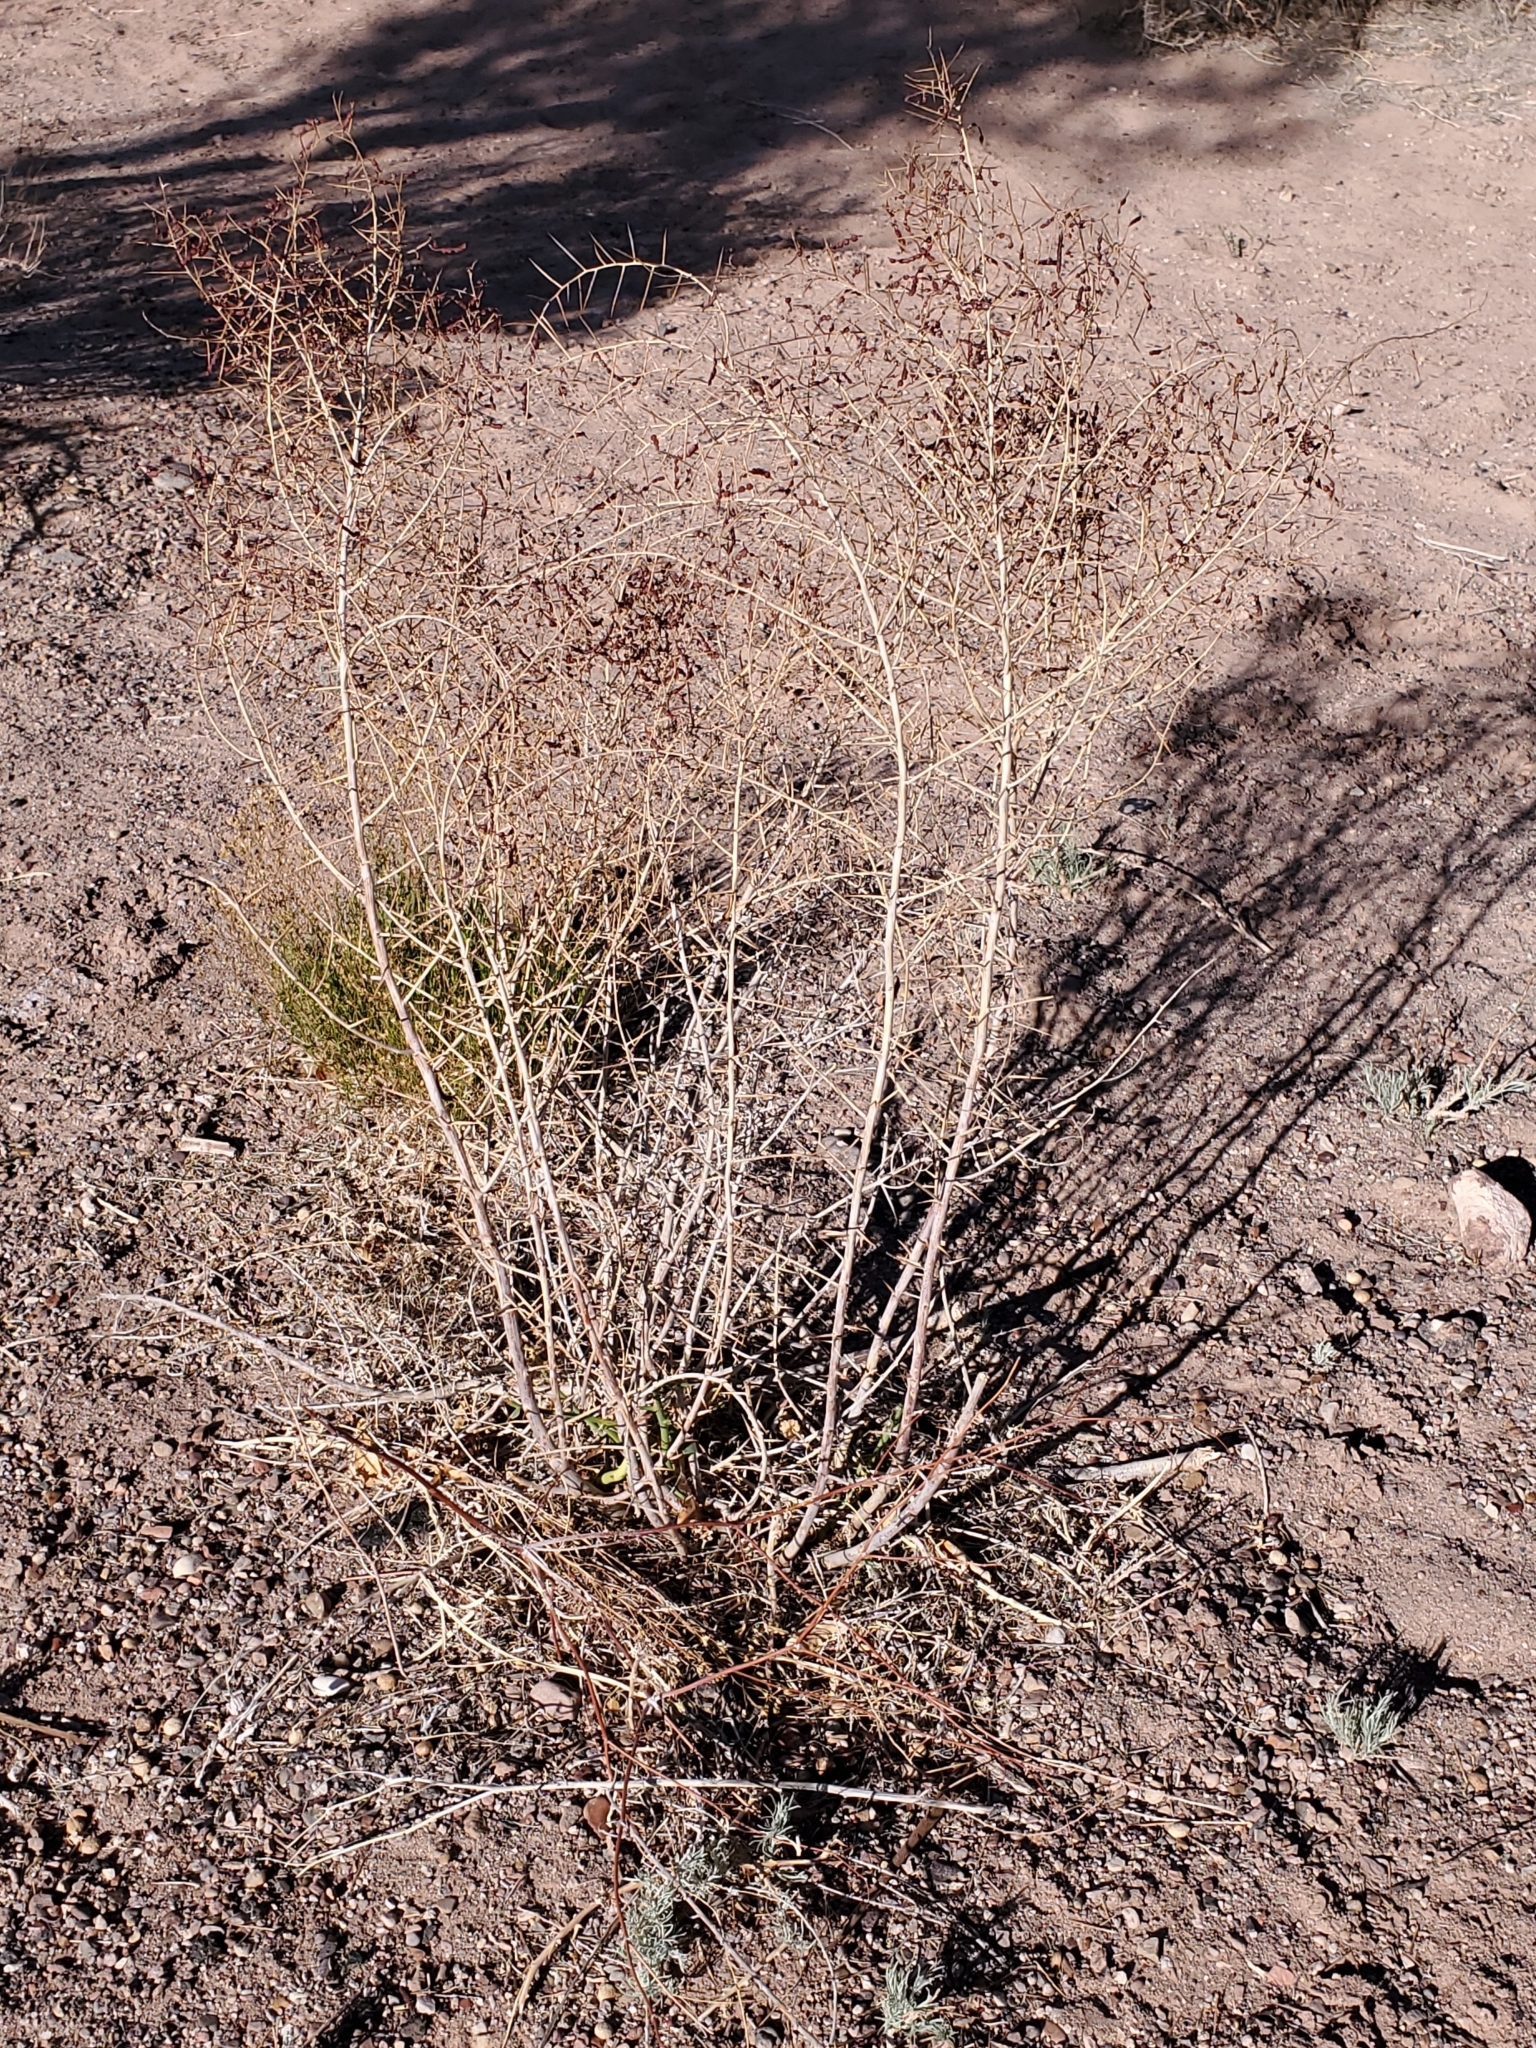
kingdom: Plantae
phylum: Tracheophyta
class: Magnoliopsida
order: Fabales
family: Fabaceae
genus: Alhagi
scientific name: Alhagi maurorum
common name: Camelthorn
